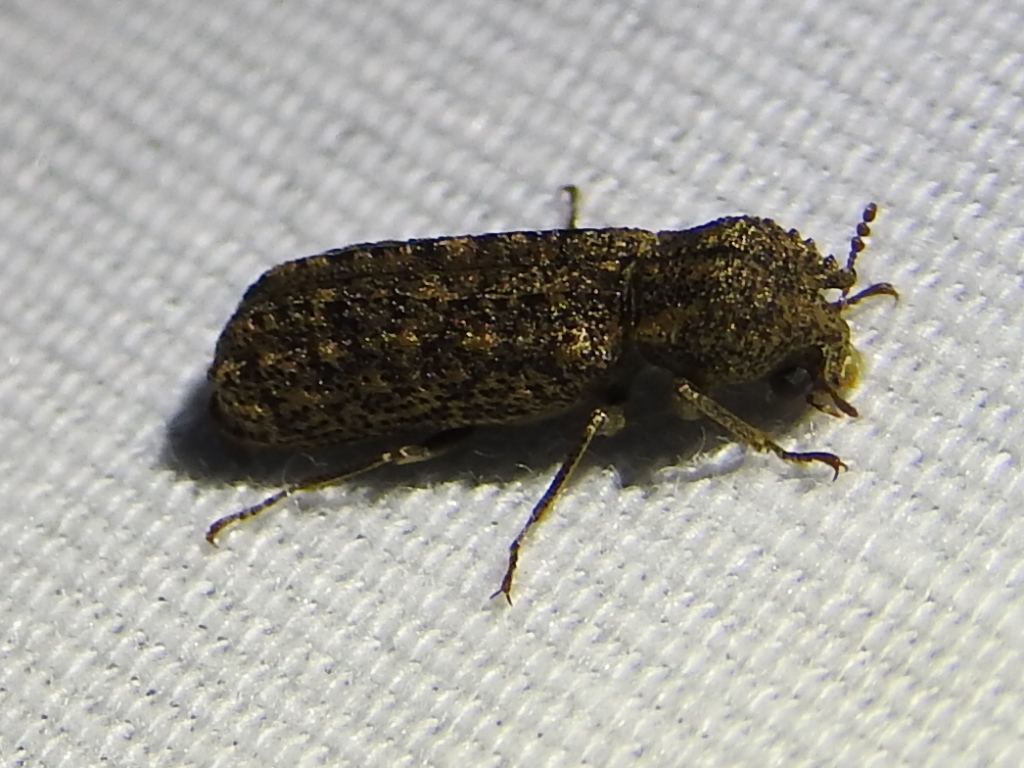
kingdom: Animalia
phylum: Arthropoda
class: Insecta
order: Coleoptera
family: Bostrichidae
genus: Lichenophanes
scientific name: Lichenophanes bicornis
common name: Two-horned powder-post beetle
